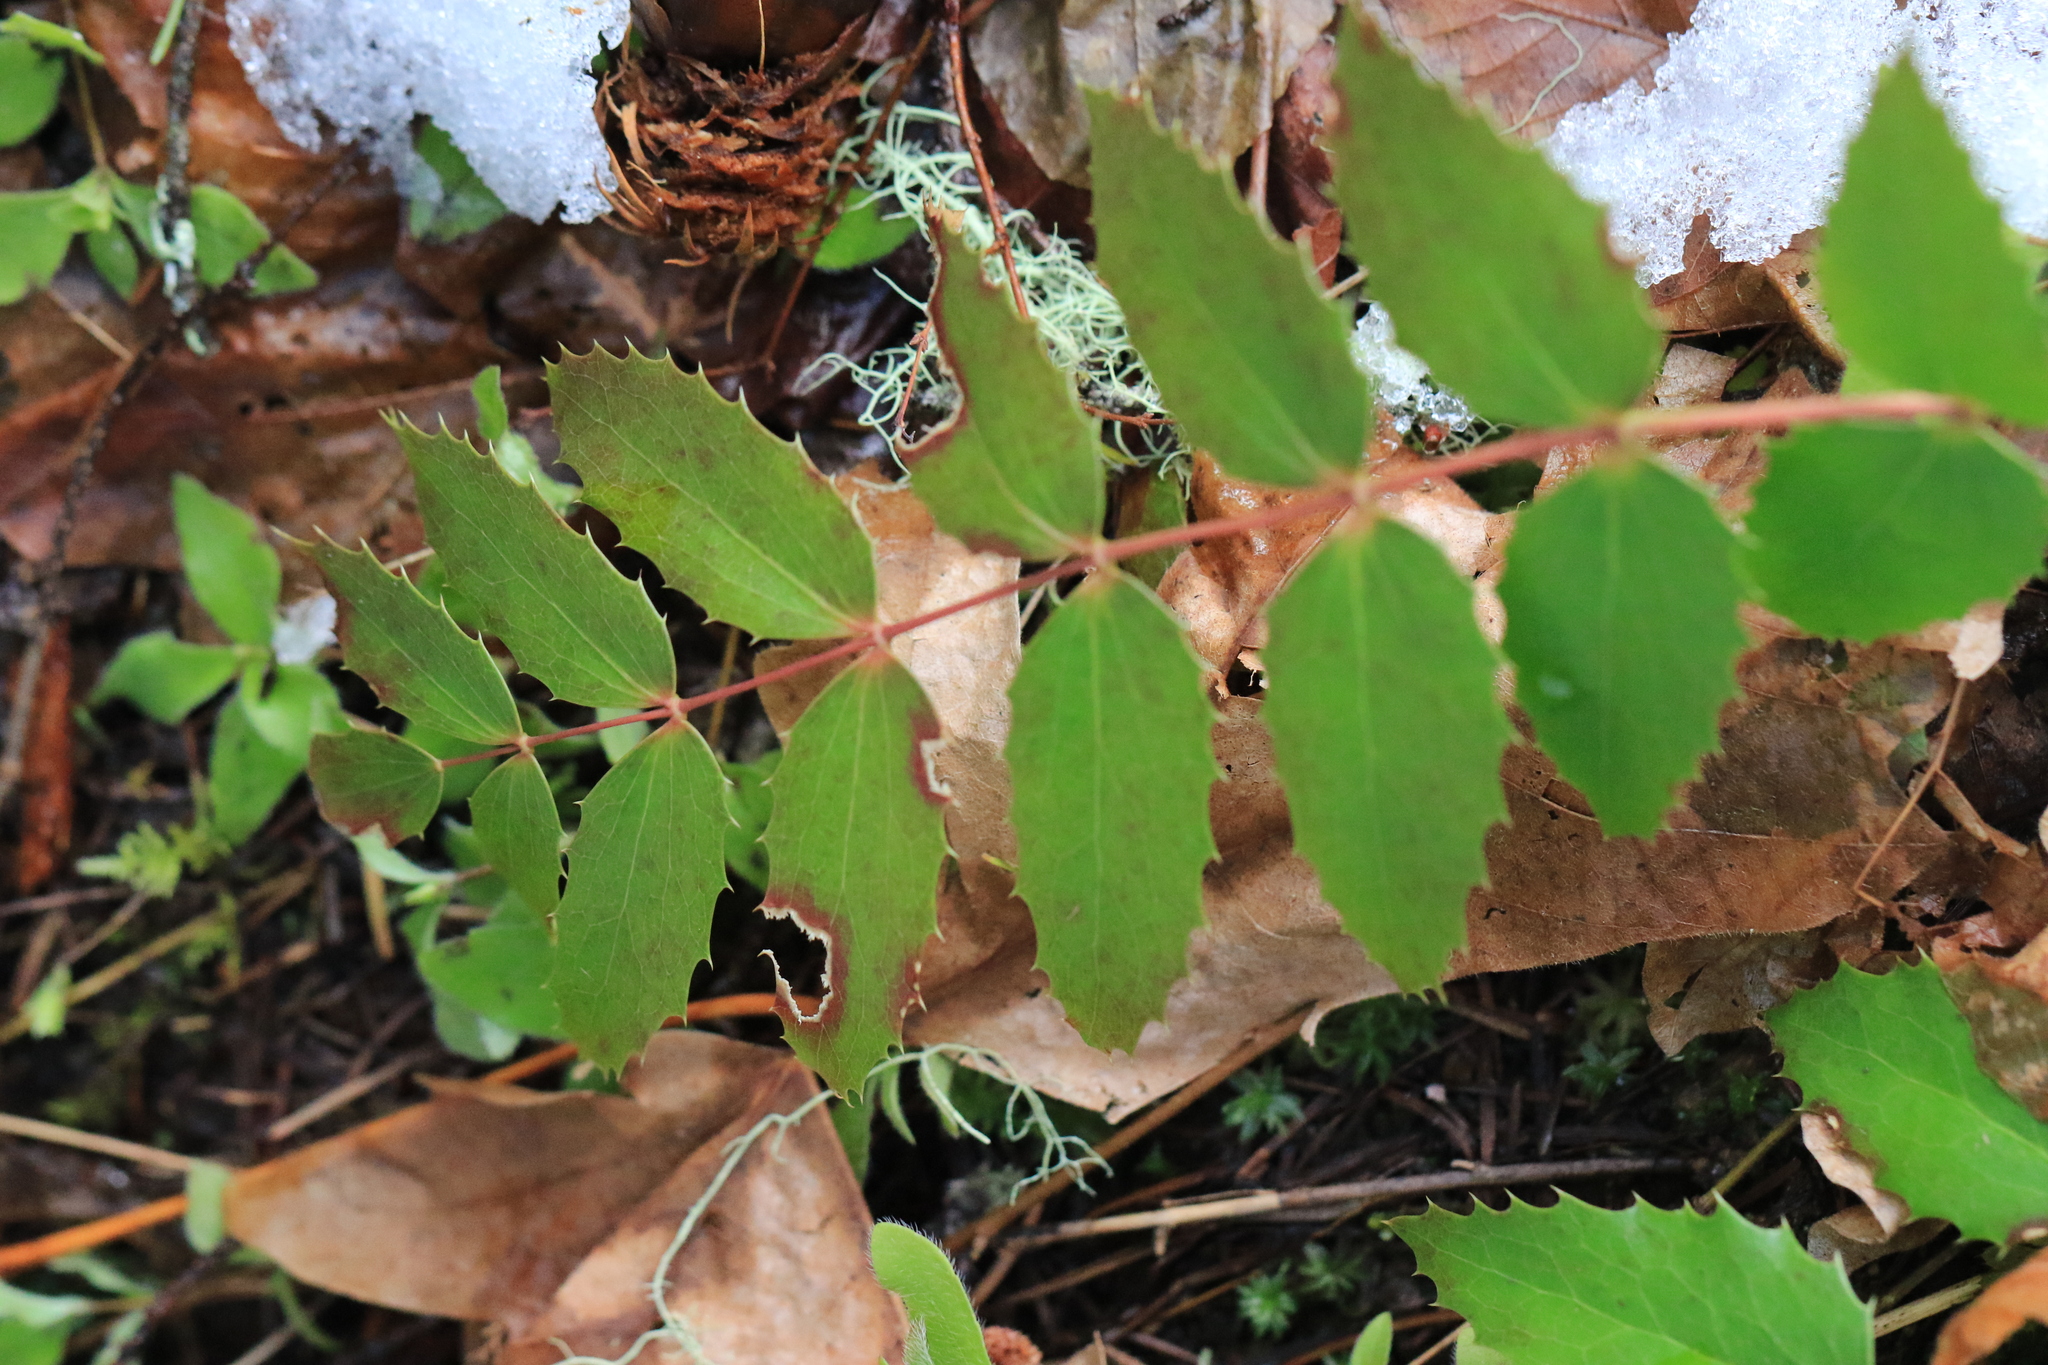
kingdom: Plantae
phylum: Tracheophyta
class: Magnoliopsida
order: Ranunculales
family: Berberidaceae
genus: Mahonia
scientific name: Mahonia nervosa
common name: Cascade oregon-grape
